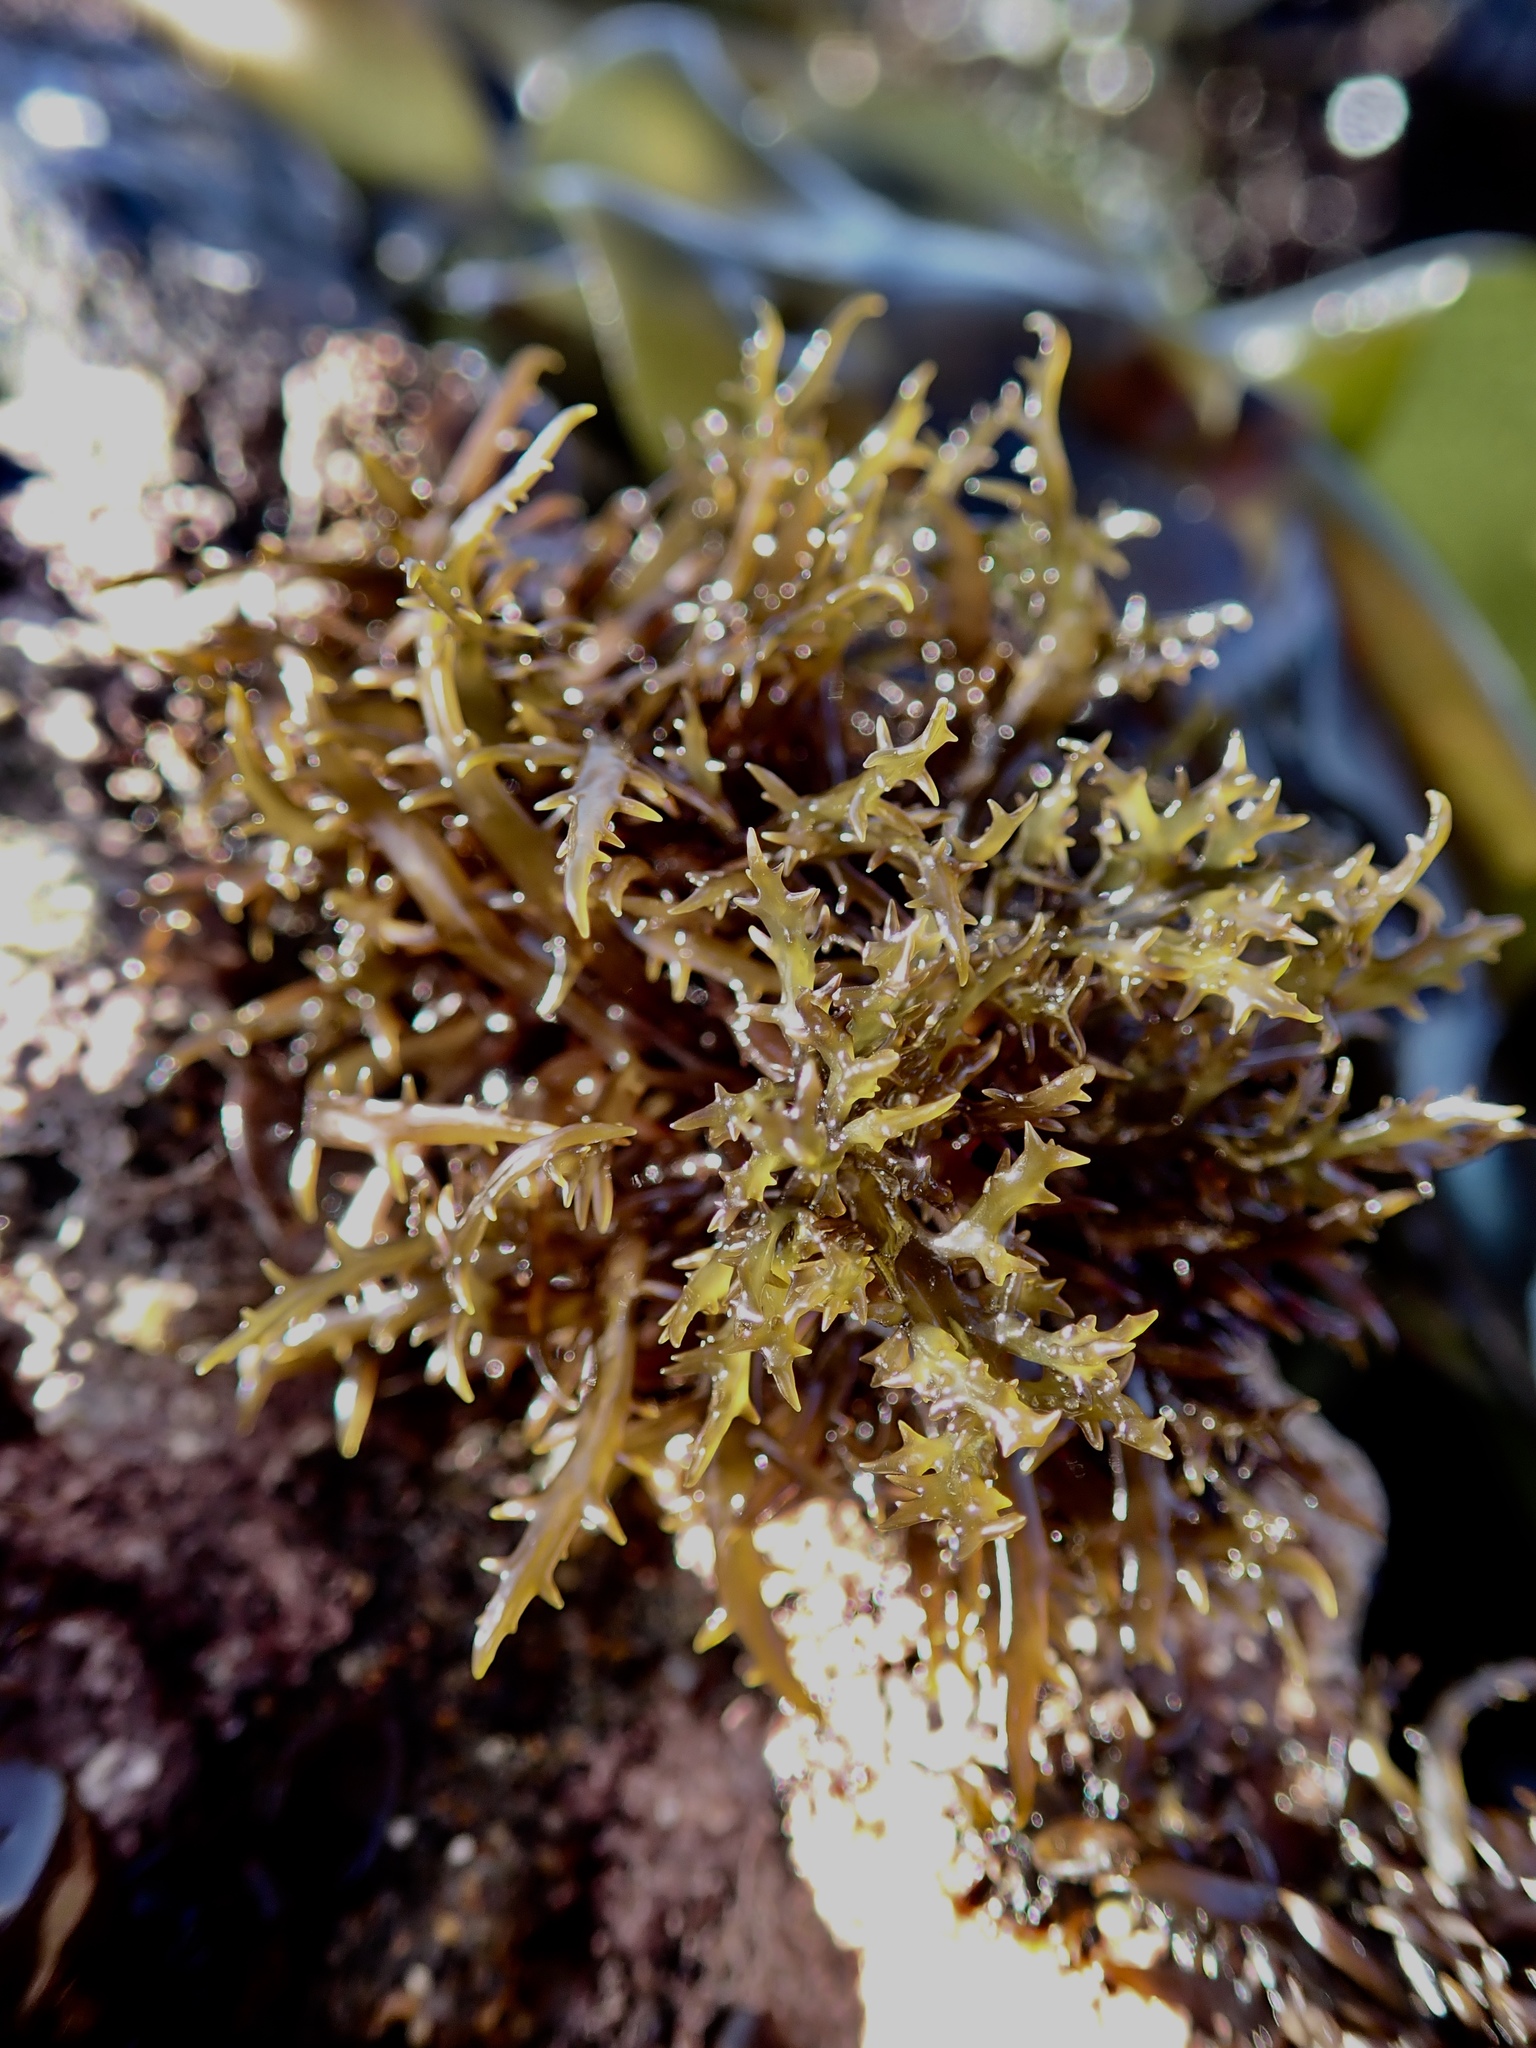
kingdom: Plantae
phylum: Rhodophyta
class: Florideophyceae
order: Gigartinales
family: Gigartinaceae
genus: Chondracanthus
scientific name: Chondracanthus canaliculatus
